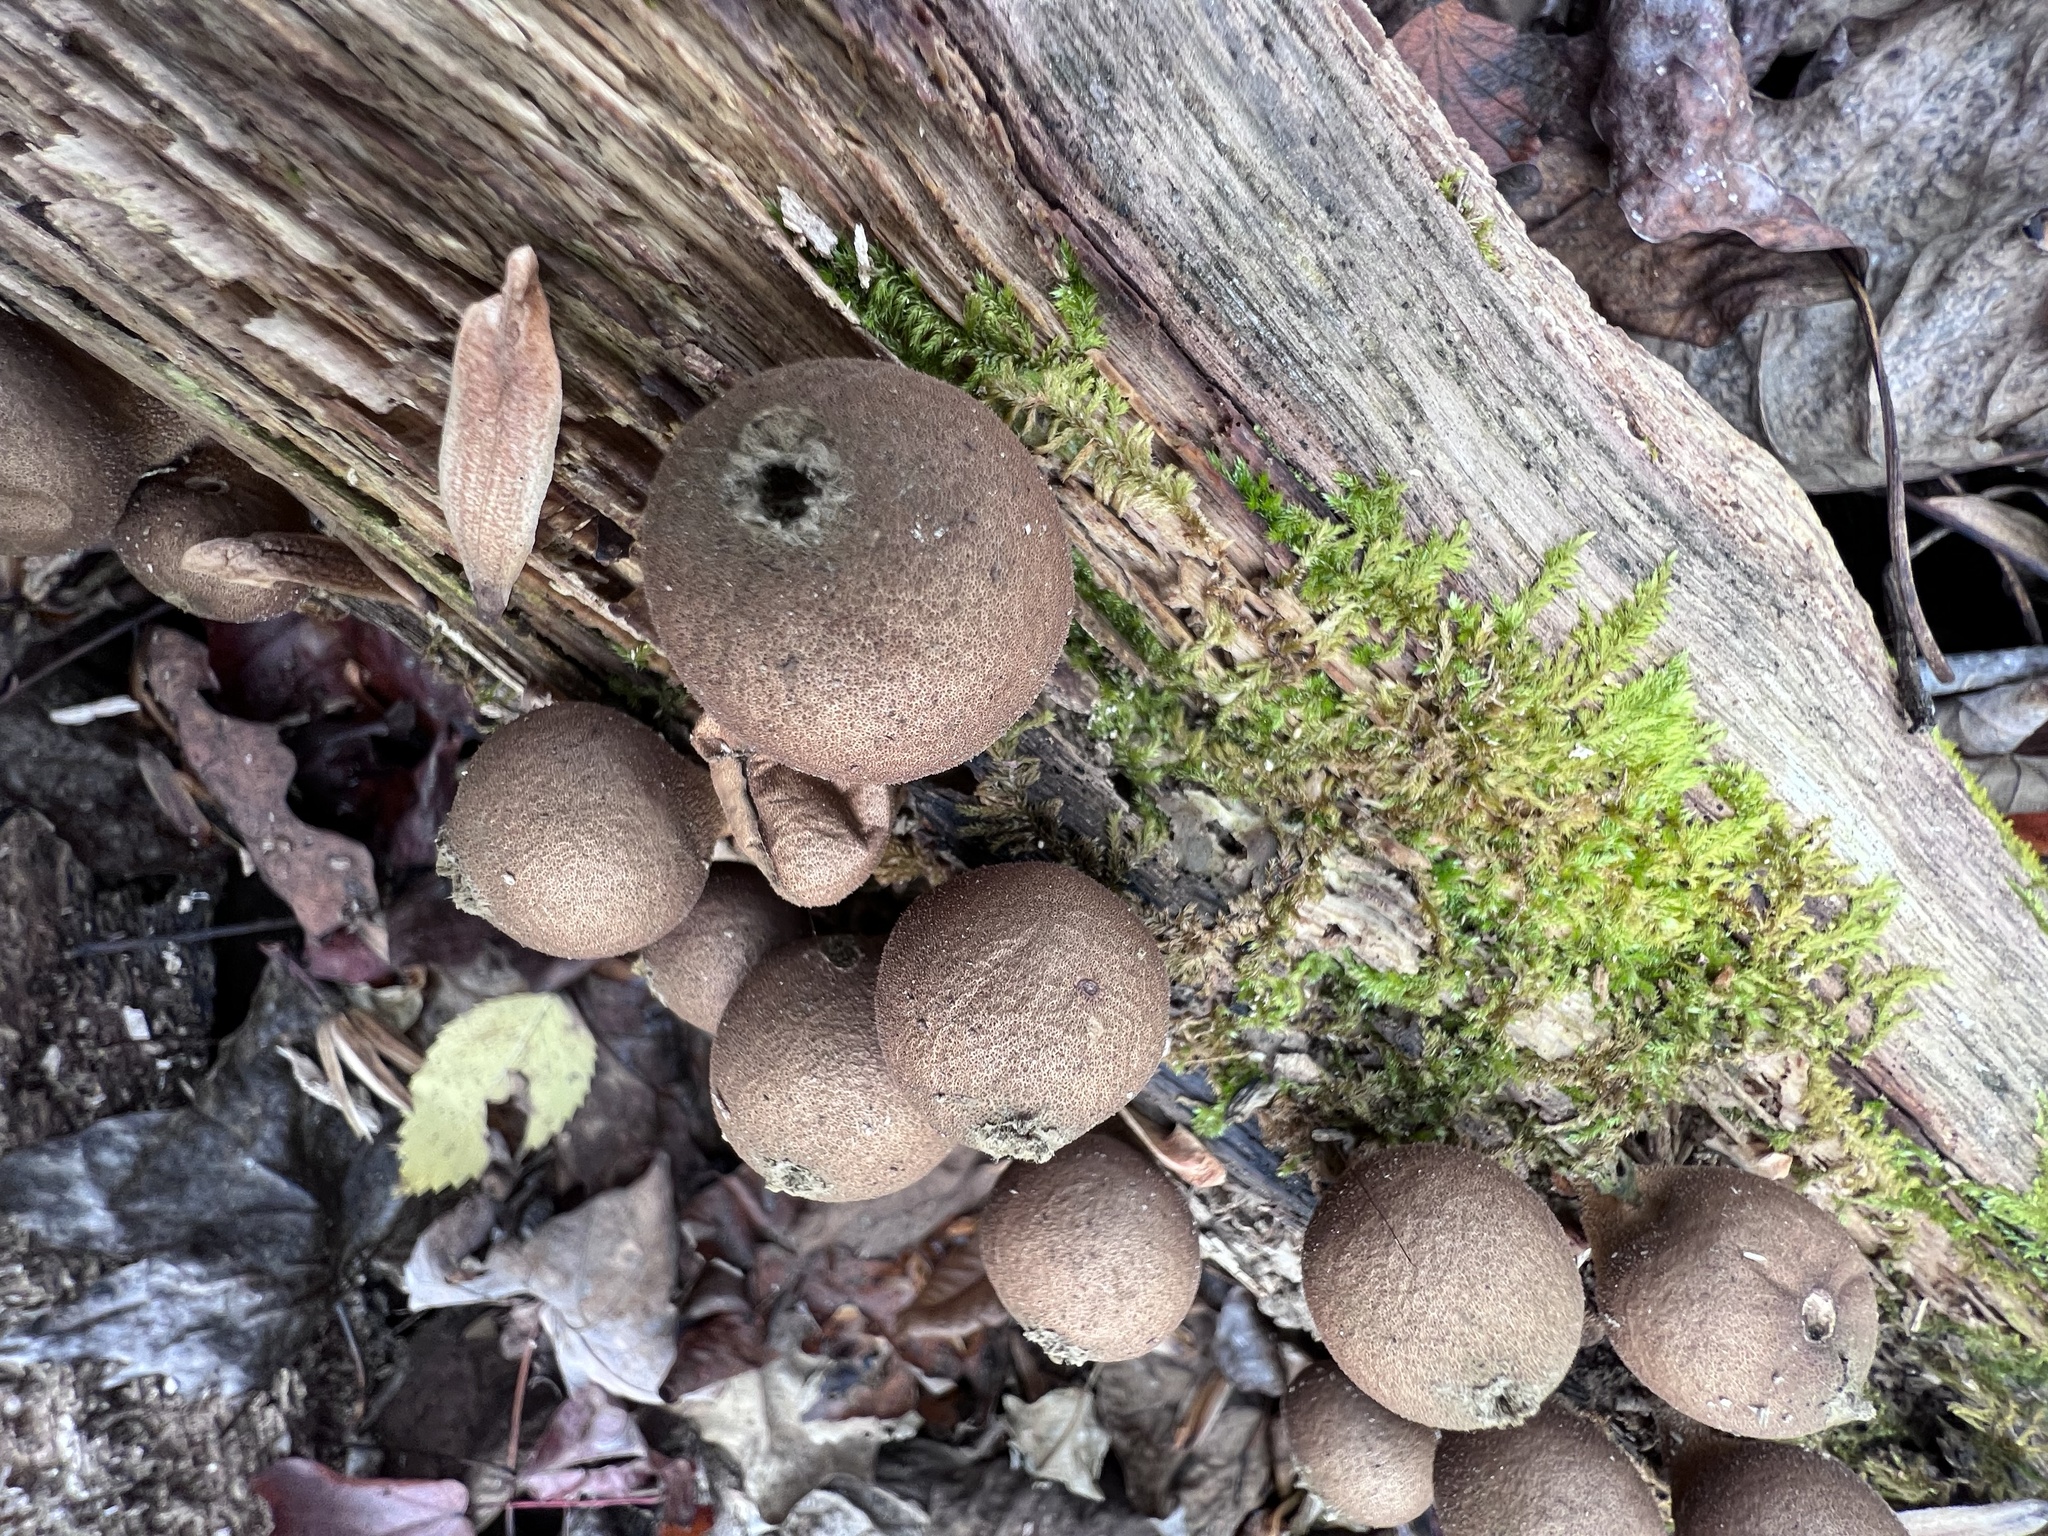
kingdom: Fungi
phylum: Basidiomycota
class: Agaricomycetes
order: Agaricales
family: Lycoperdaceae
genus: Apioperdon
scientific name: Apioperdon pyriforme
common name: Pear-shaped puffball
